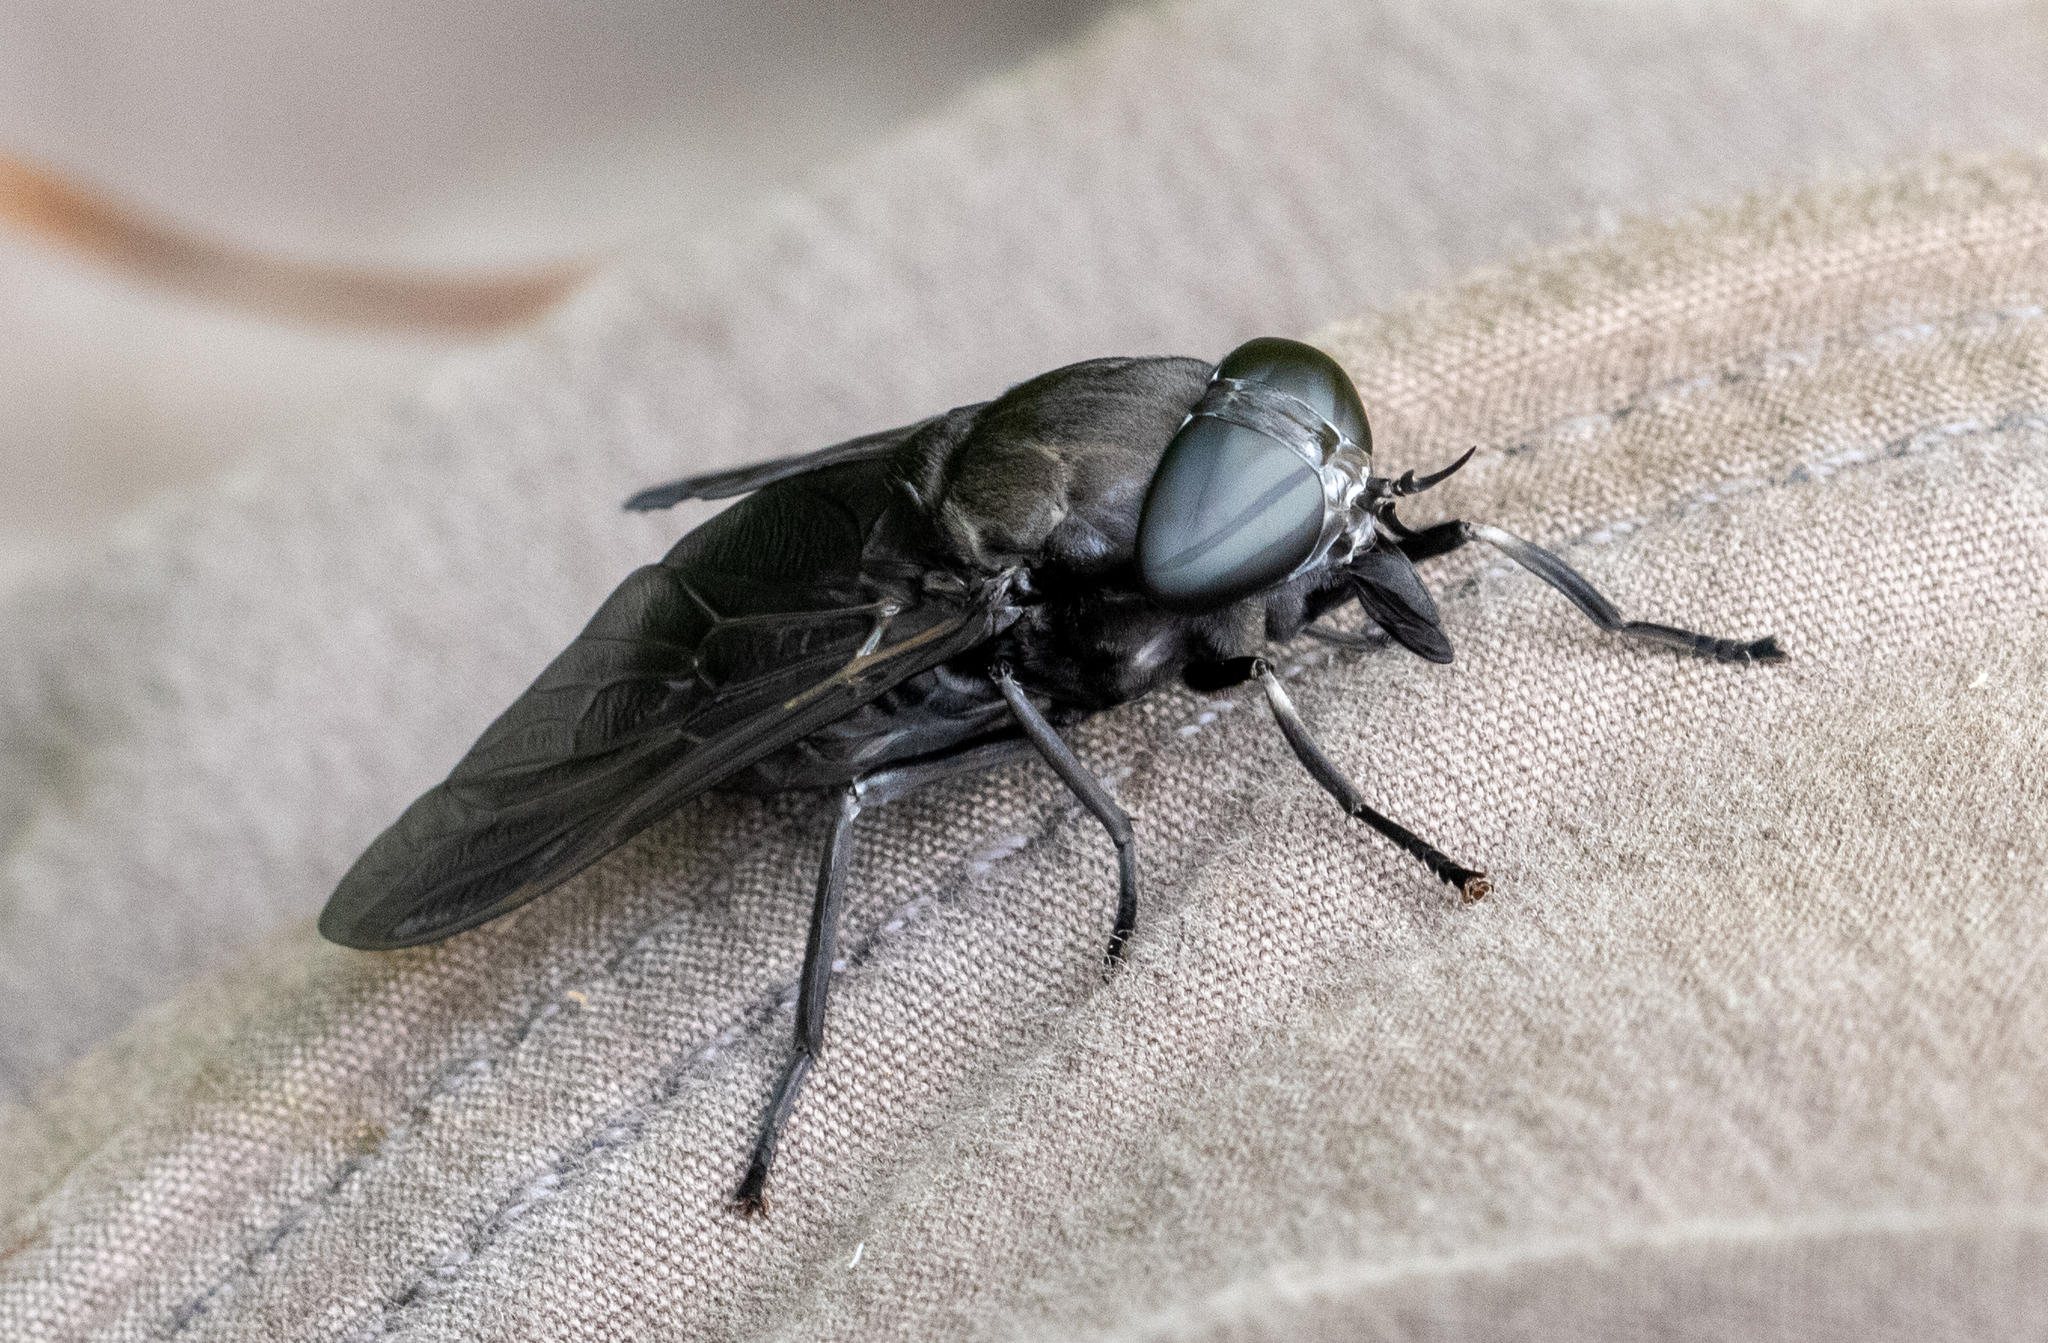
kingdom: Animalia
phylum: Arthropoda
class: Insecta
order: Diptera
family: Tabanidae
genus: Tabanus
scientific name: Tabanus atratus
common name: Black horse fly
